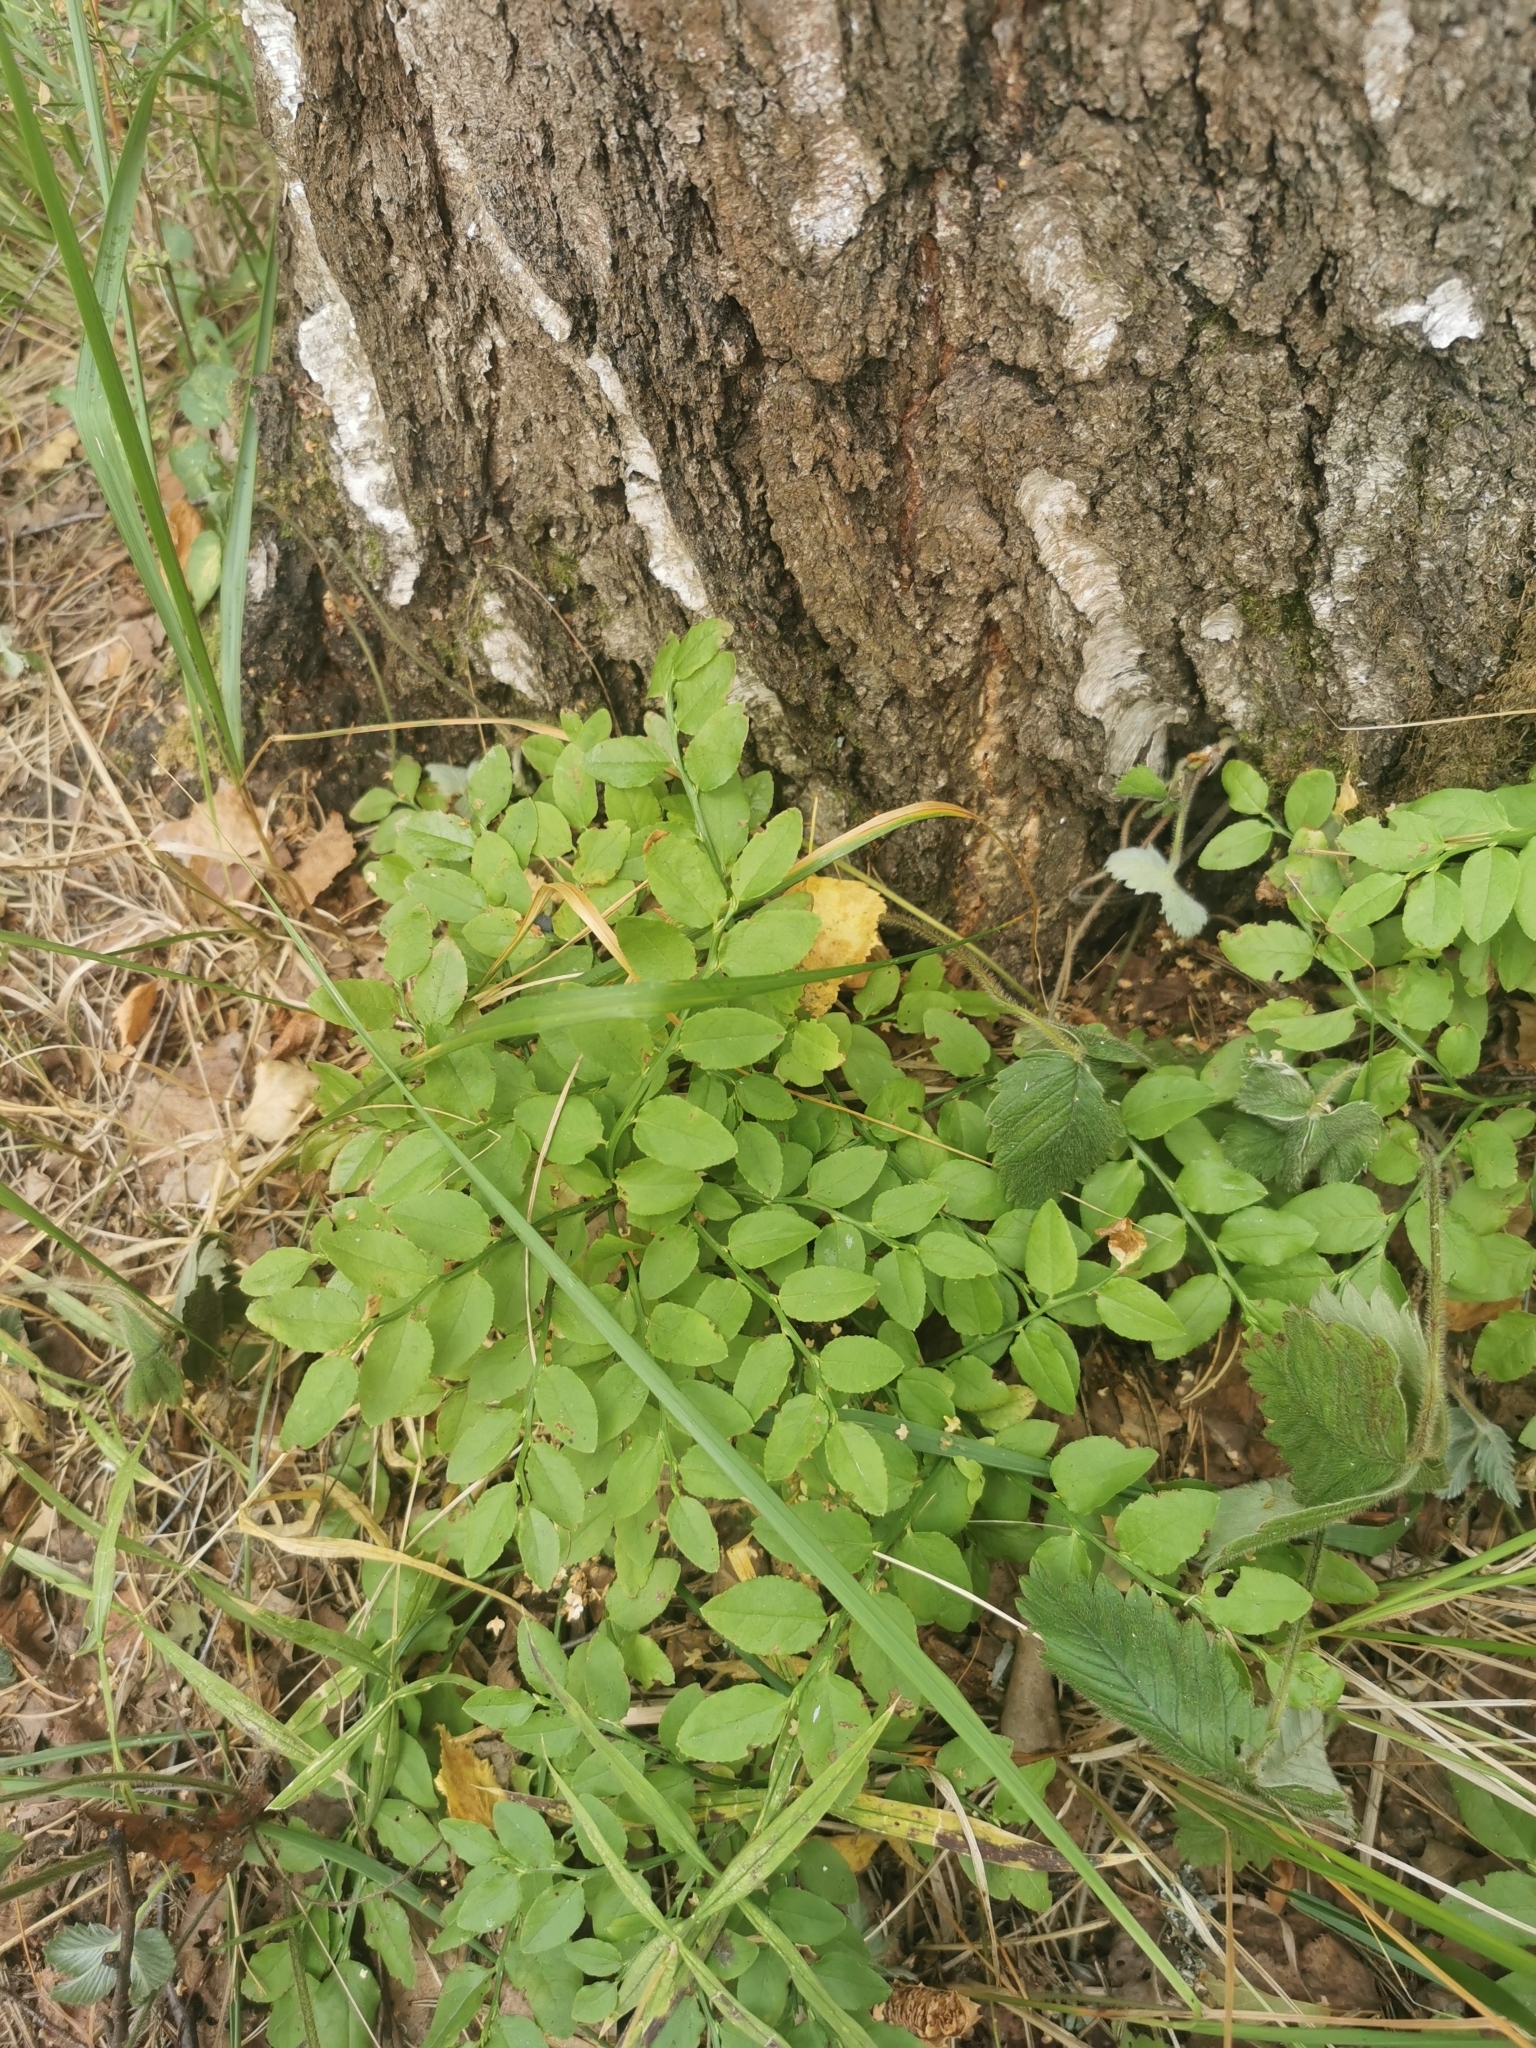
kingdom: Plantae
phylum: Tracheophyta
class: Magnoliopsida
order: Ericales
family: Ericaceae
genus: Vaccinium
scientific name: Vaccinium myrtillus
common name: Bilberry
